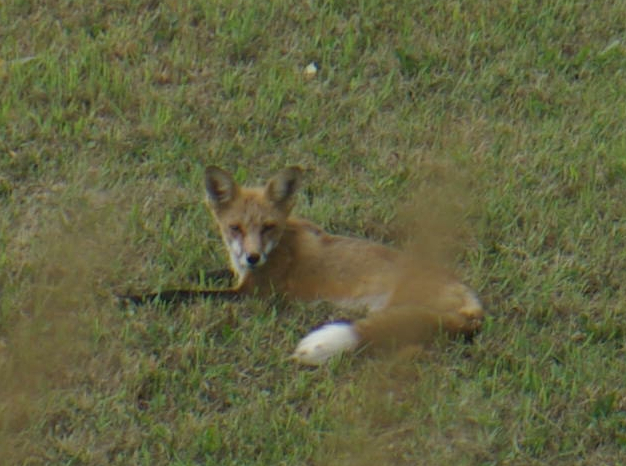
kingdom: Animalia
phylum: Chordata
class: Mammalia
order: Carnivora
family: Canidae
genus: Vulpes
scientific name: Vulpes vulpes
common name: Red fox
